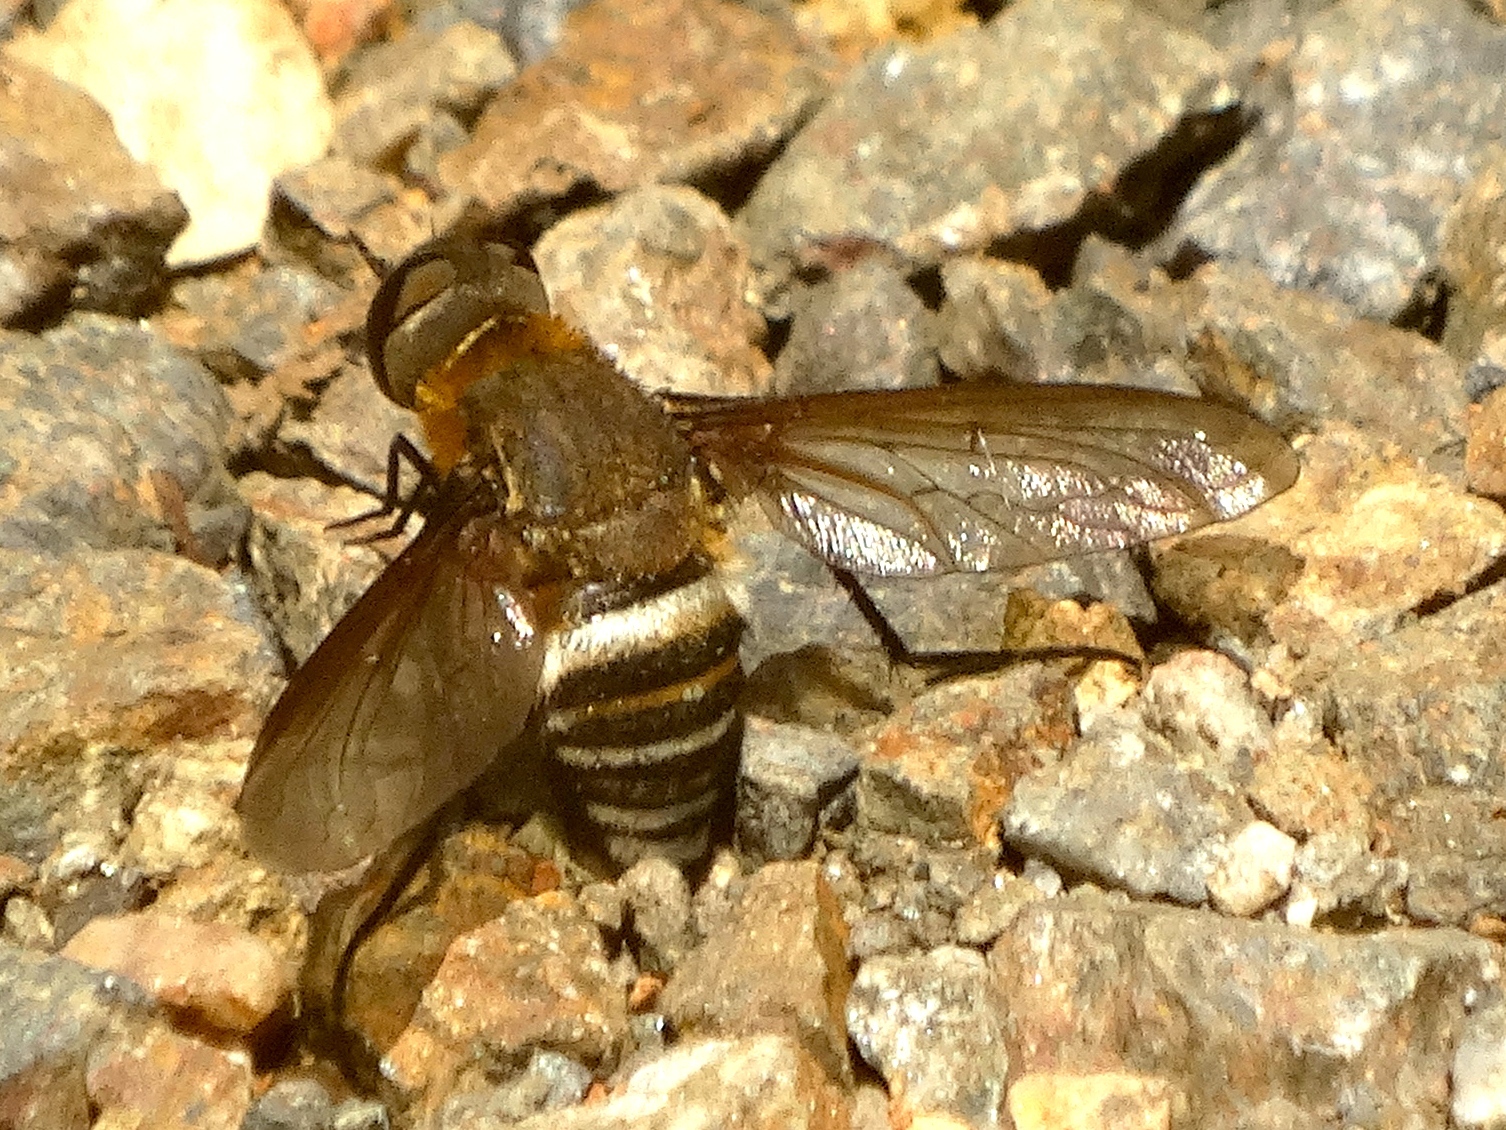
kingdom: Animalia
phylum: Arthropoda
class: Insecta
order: Diptera
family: Bombyliidae
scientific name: Bombyliidae
